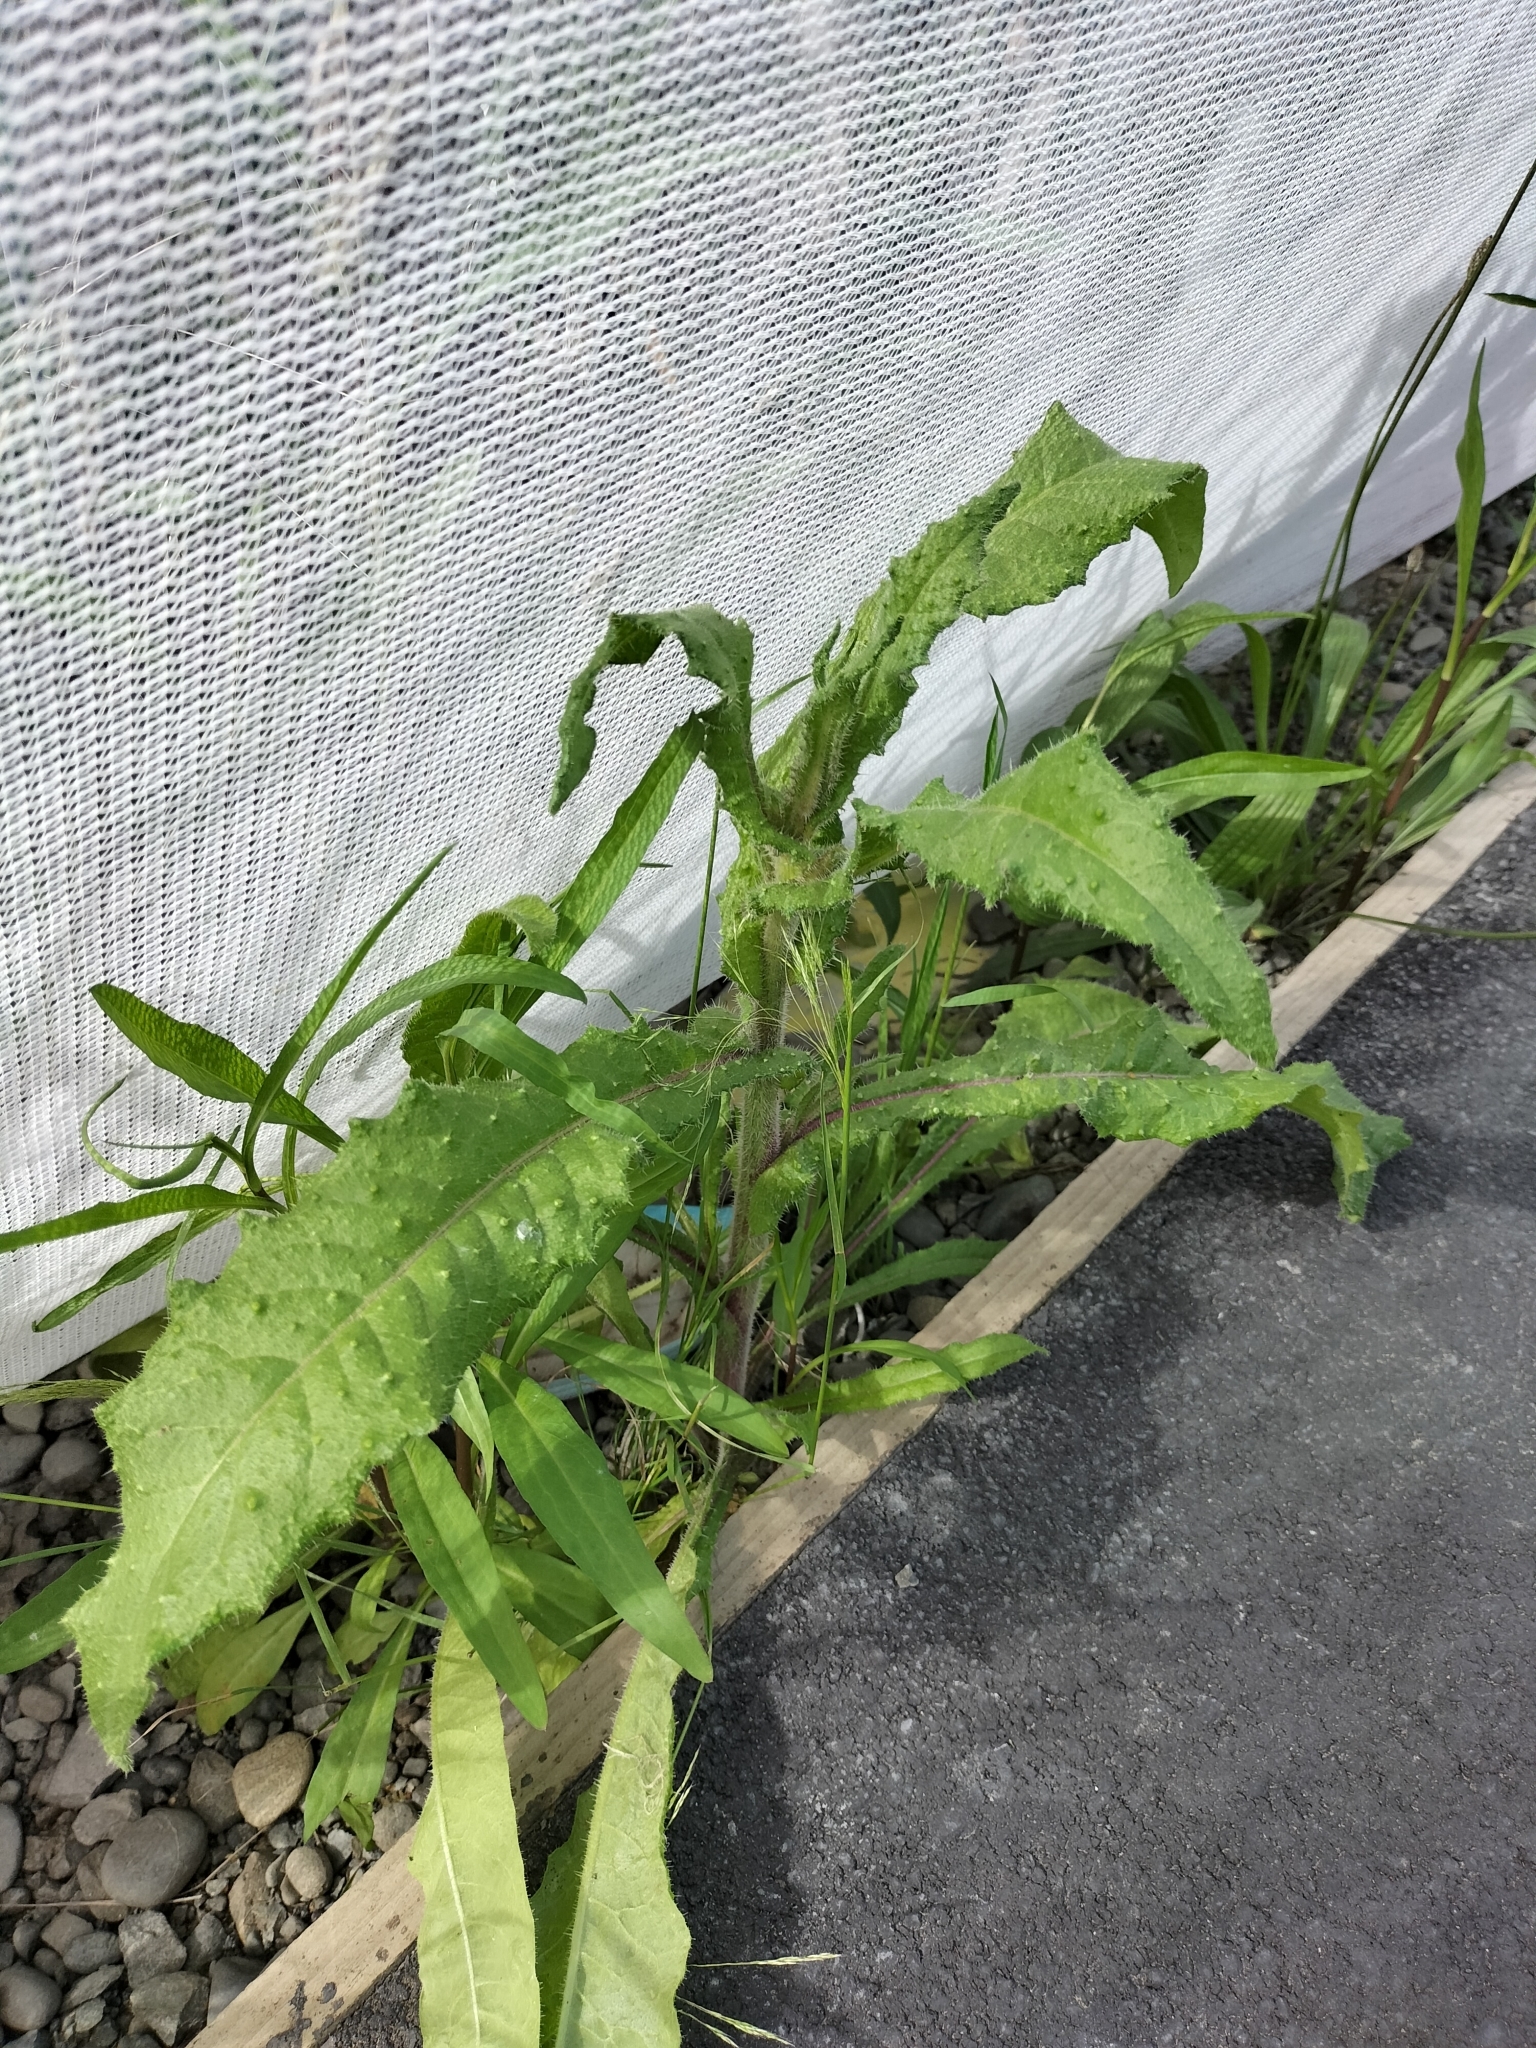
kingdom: Plantae
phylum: Tracheophyta
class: Magnoliopsida
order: Asterales
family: Asteraceae
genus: Helminthotheca
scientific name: Helminthotheca echioides
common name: Ox-tongue
